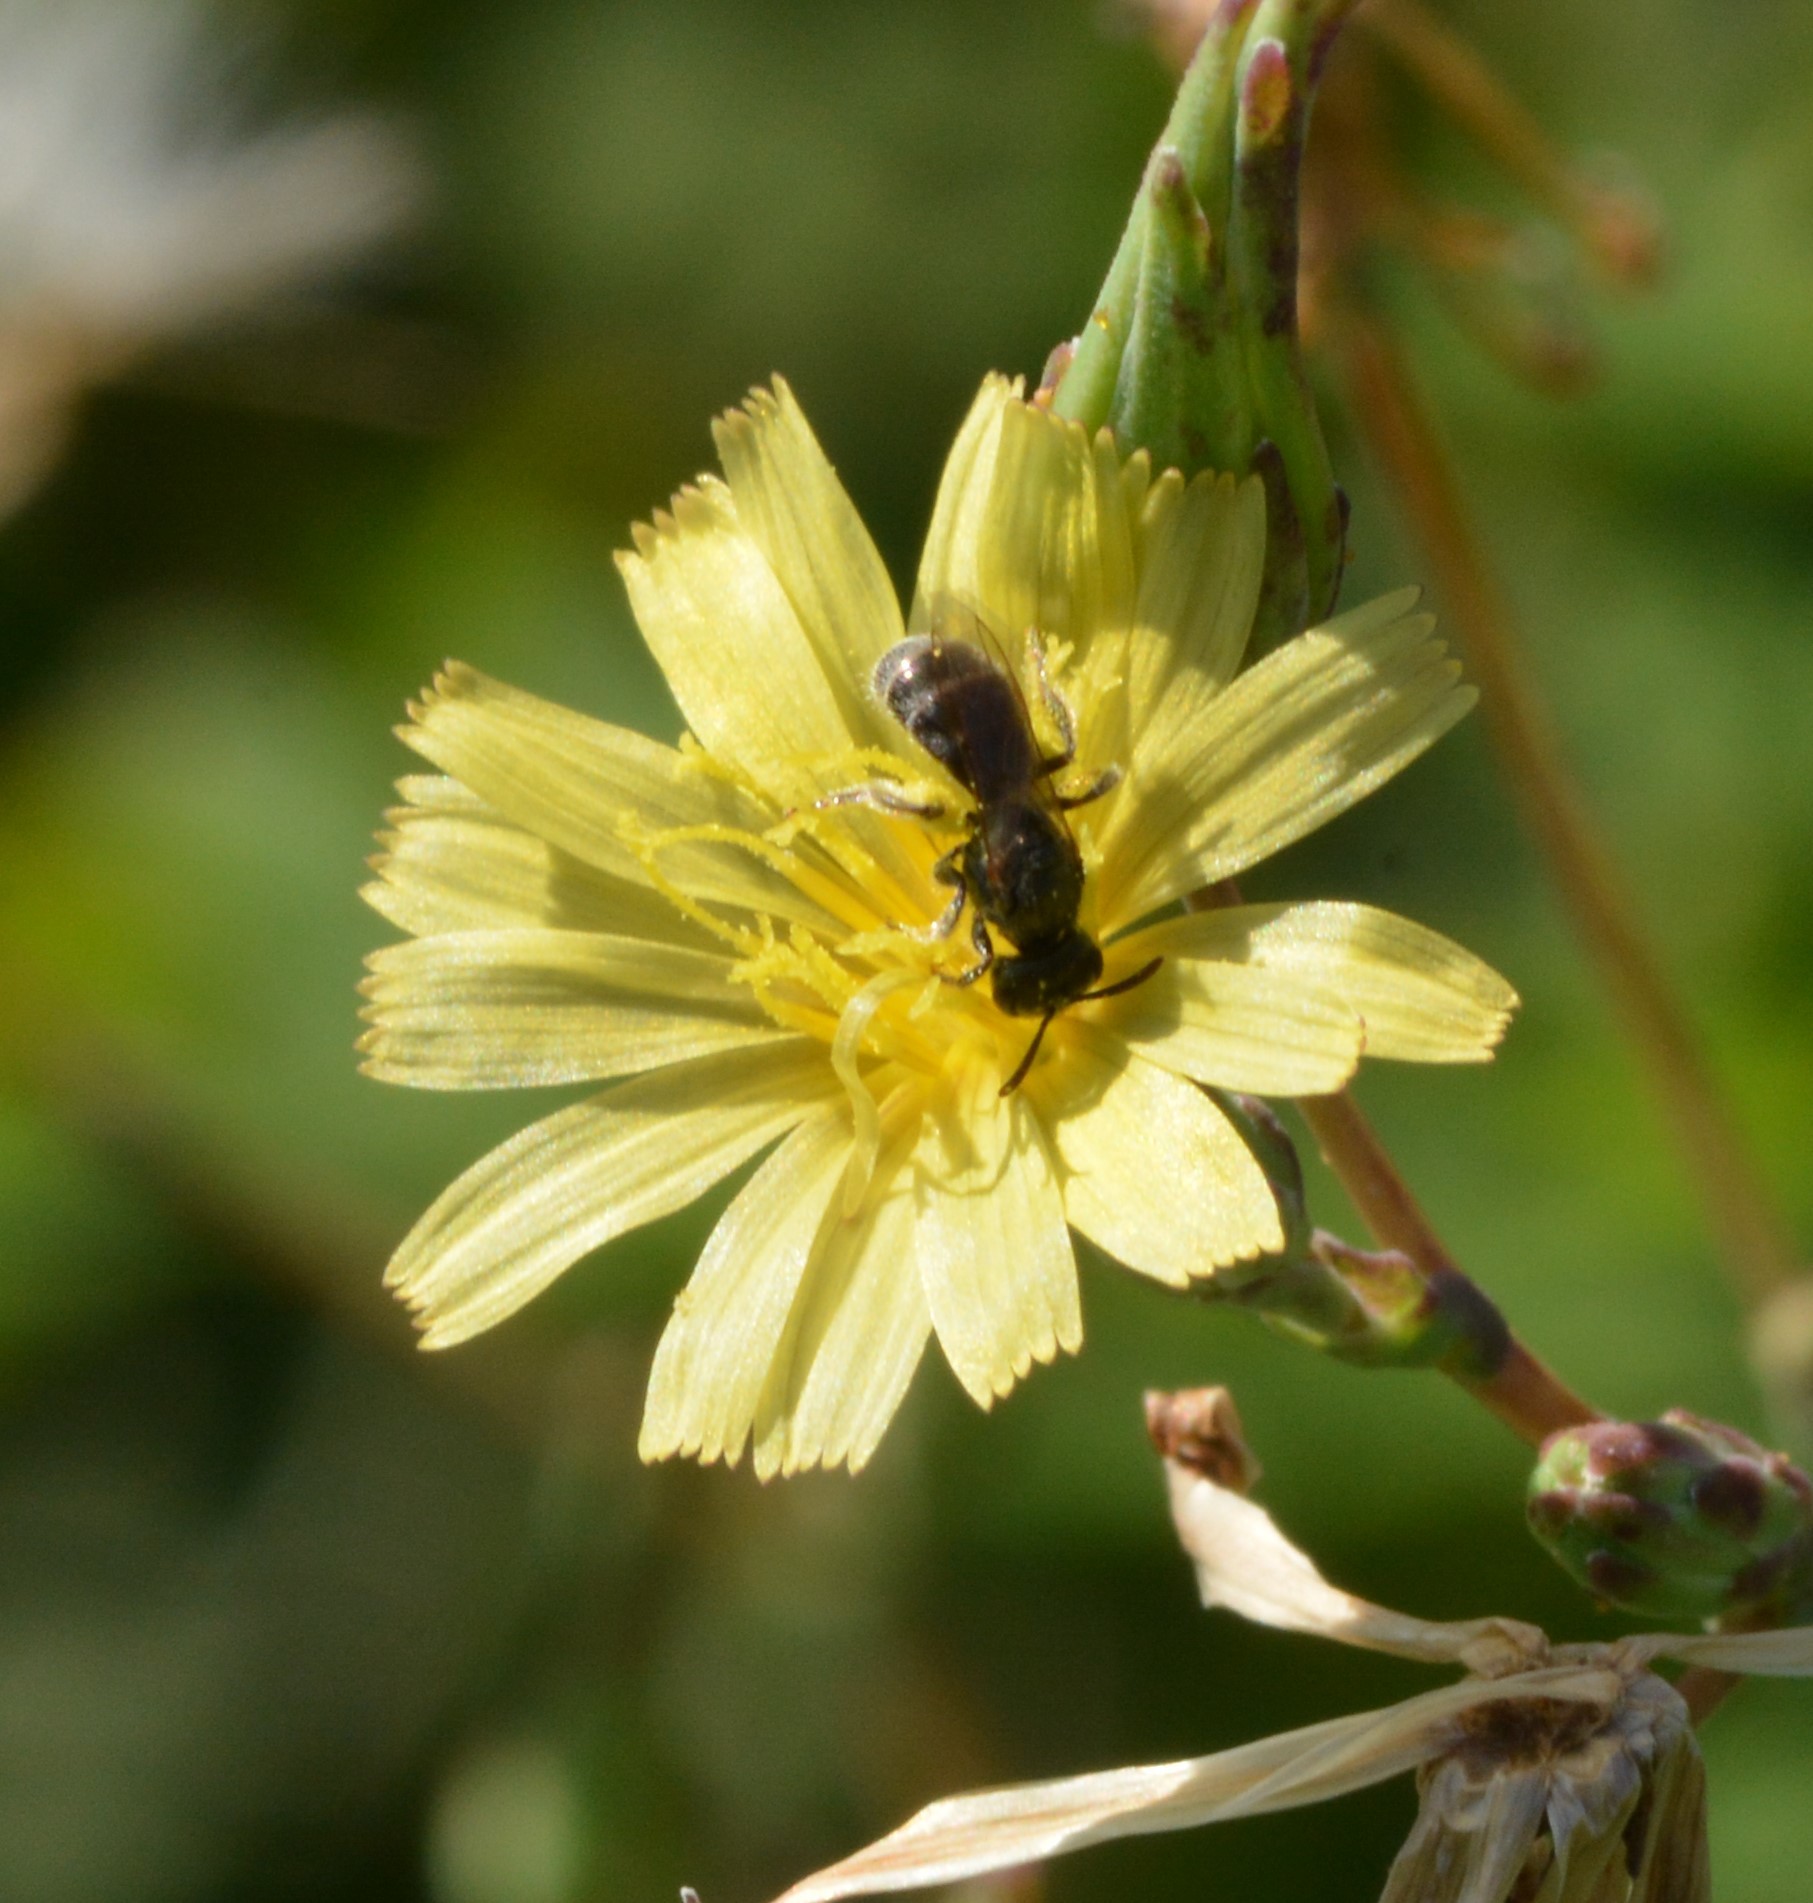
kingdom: Animalia
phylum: Arthropoda
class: Insecta
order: Hymenoptera
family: Halictidae
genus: Dialictus
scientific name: Dialictus
